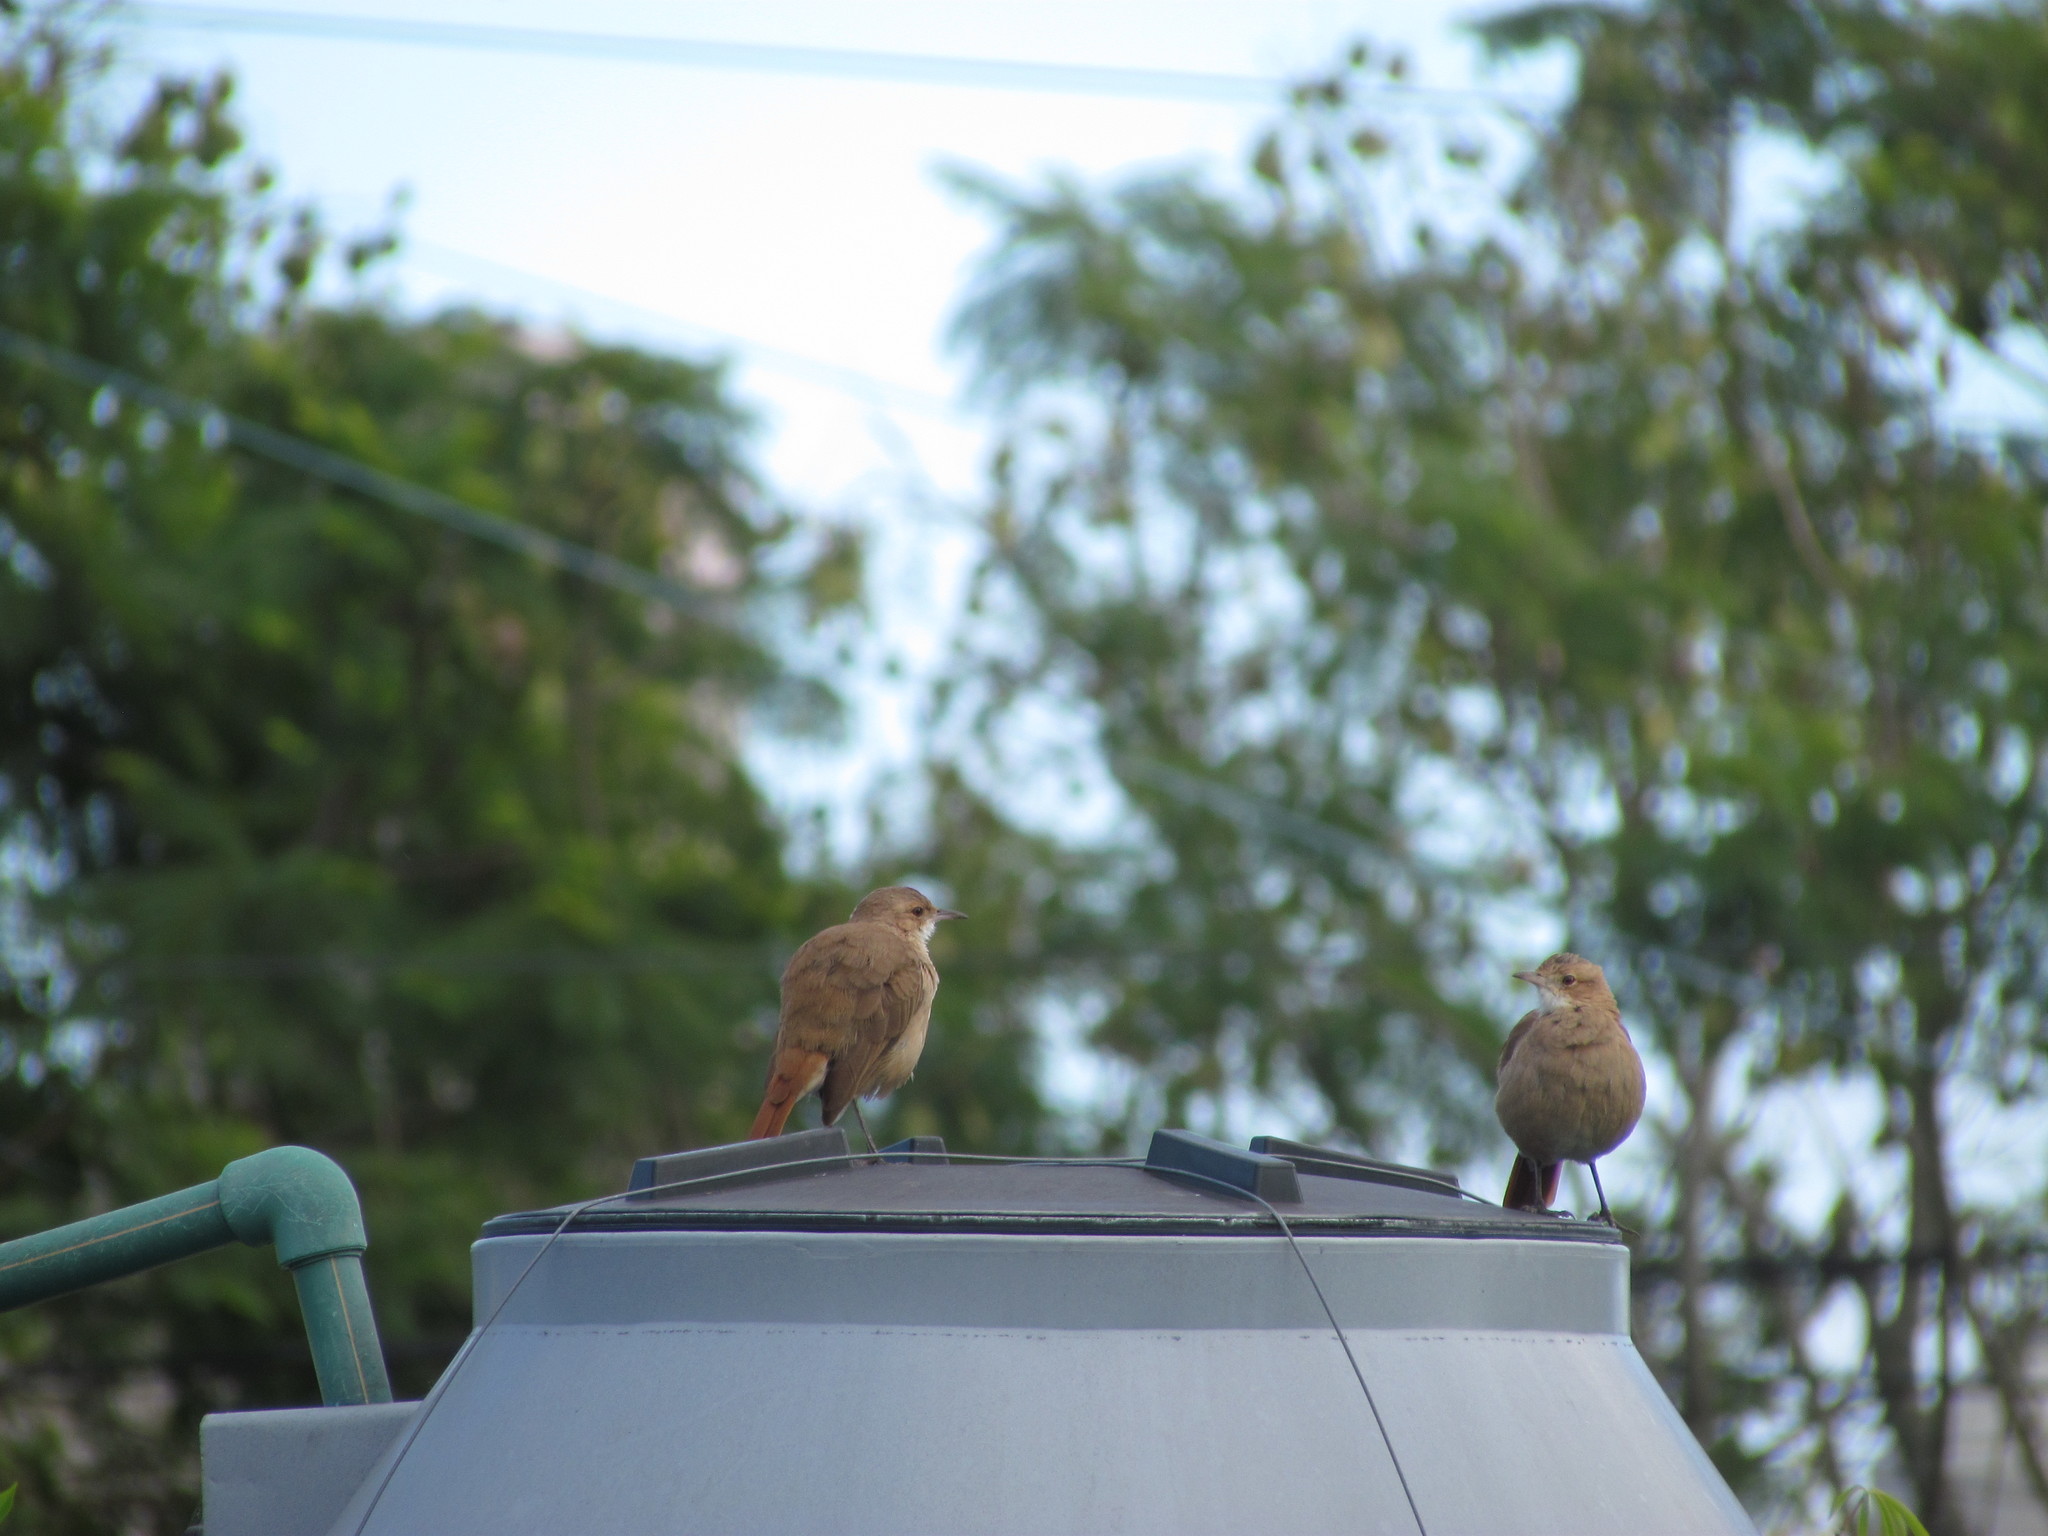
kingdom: Animalia
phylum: Chordata
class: Aves
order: Passeriformes
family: Furnariidae
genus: Furnarius
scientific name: Furnarius rufus
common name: Rufous hornero
